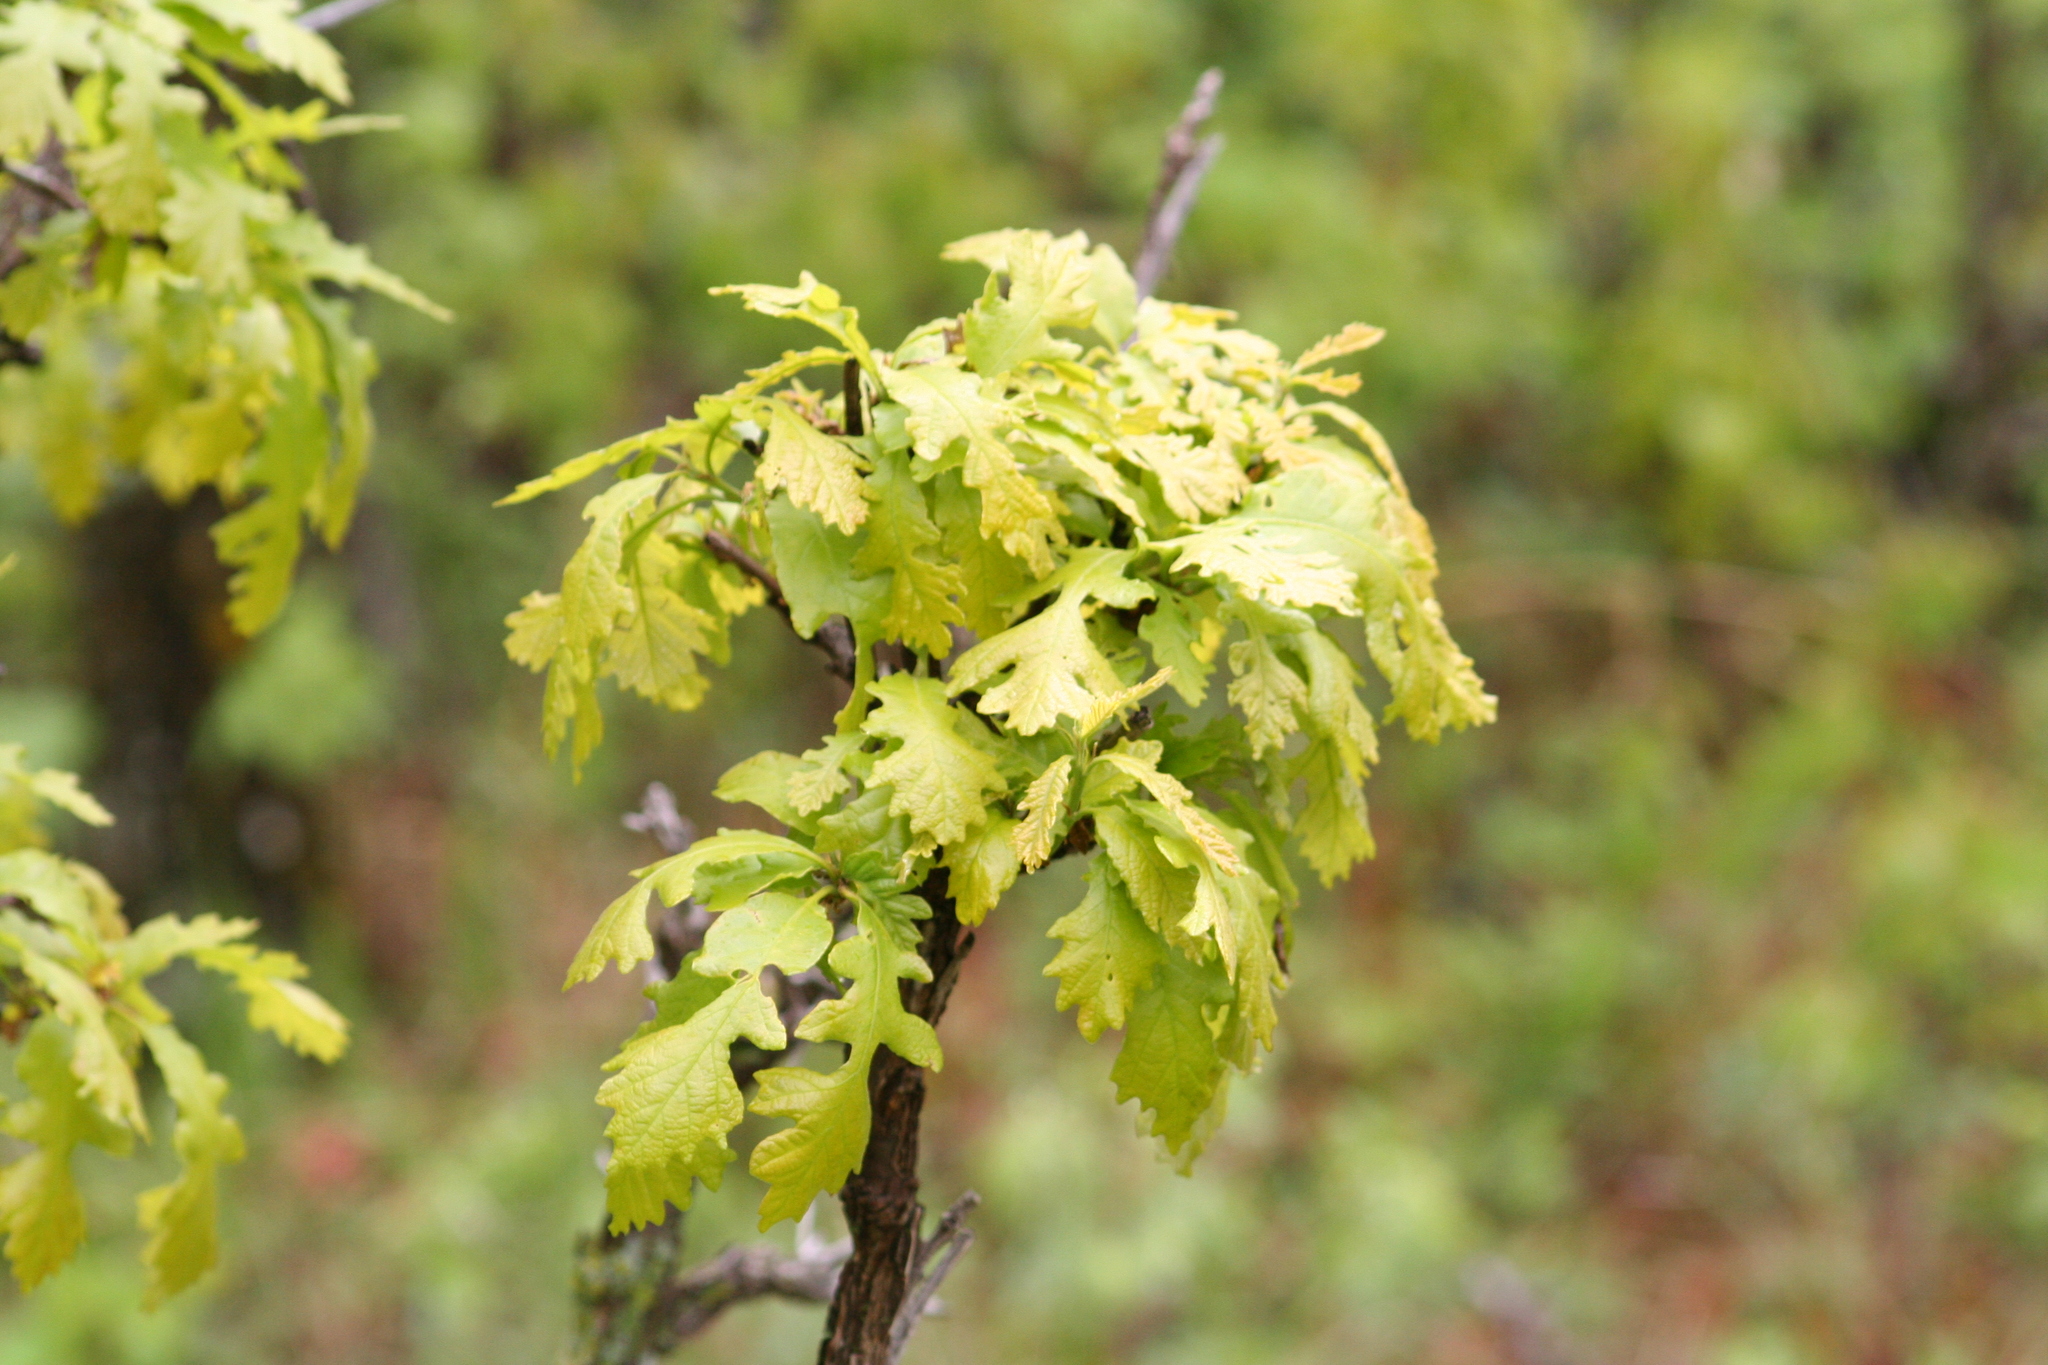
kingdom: Plantae
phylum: Tracheophyta
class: Magnoliopsida
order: Fagales
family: Fagaceae
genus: Quercus
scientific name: Quercus macrocarpa
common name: Bur oak
